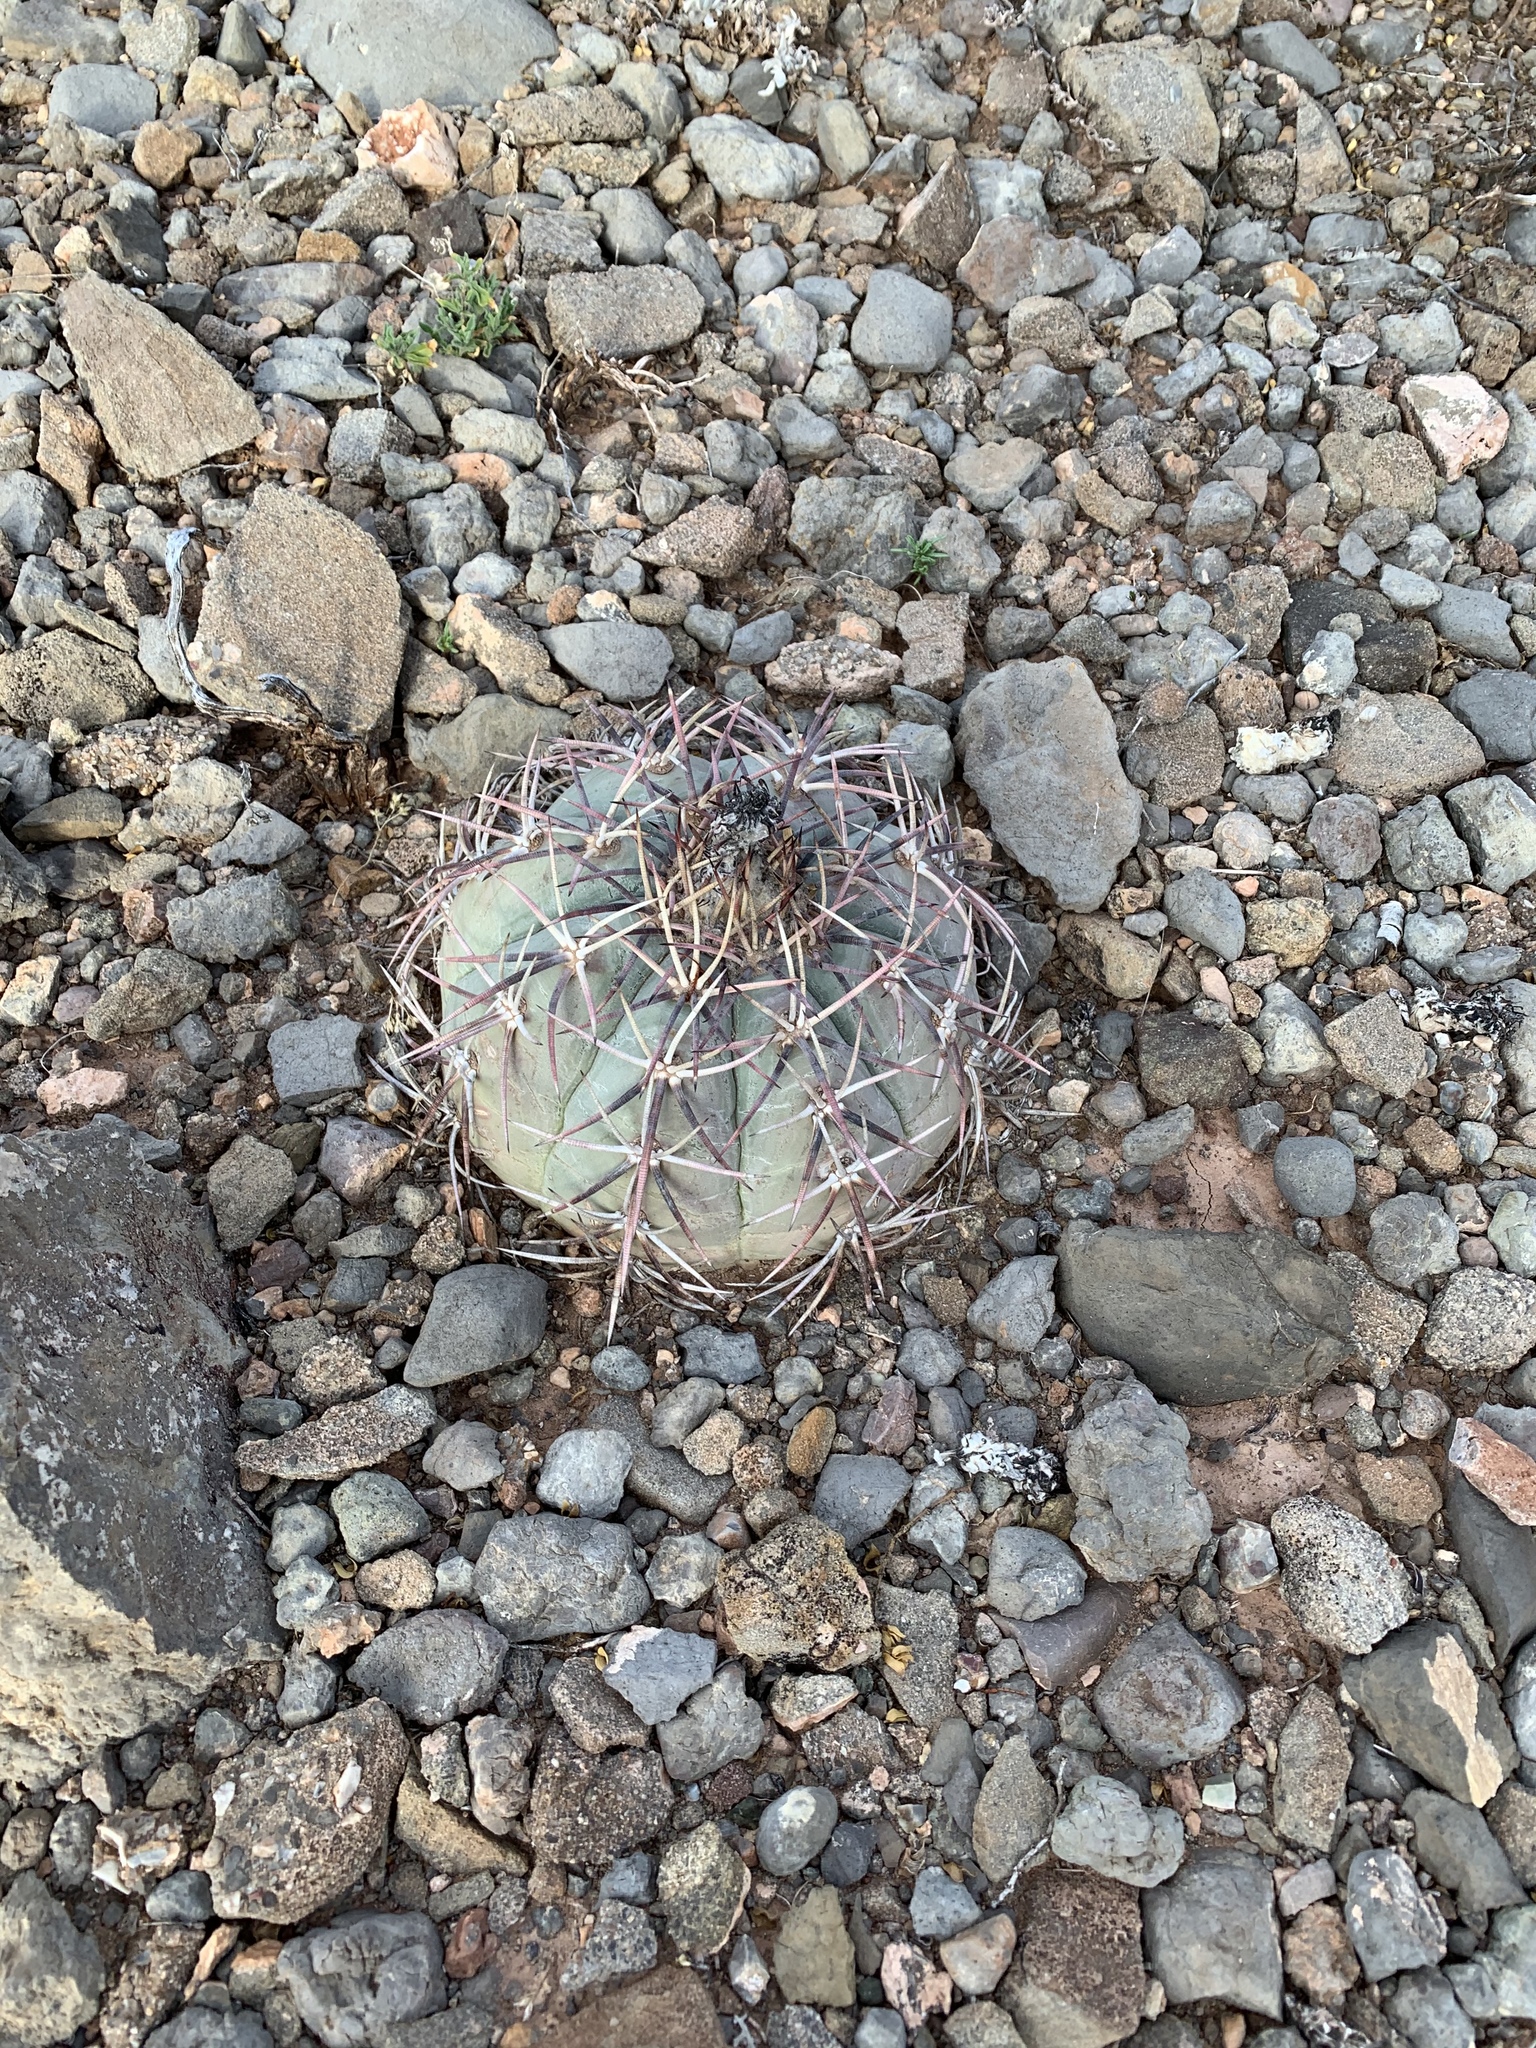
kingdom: Plantae
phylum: Tracheophyta
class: Magnoliopsida
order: Caryophyllales
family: Cactaceae
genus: Echinocactus
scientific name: Echinocactus horizonthalonius
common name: Devilshead
